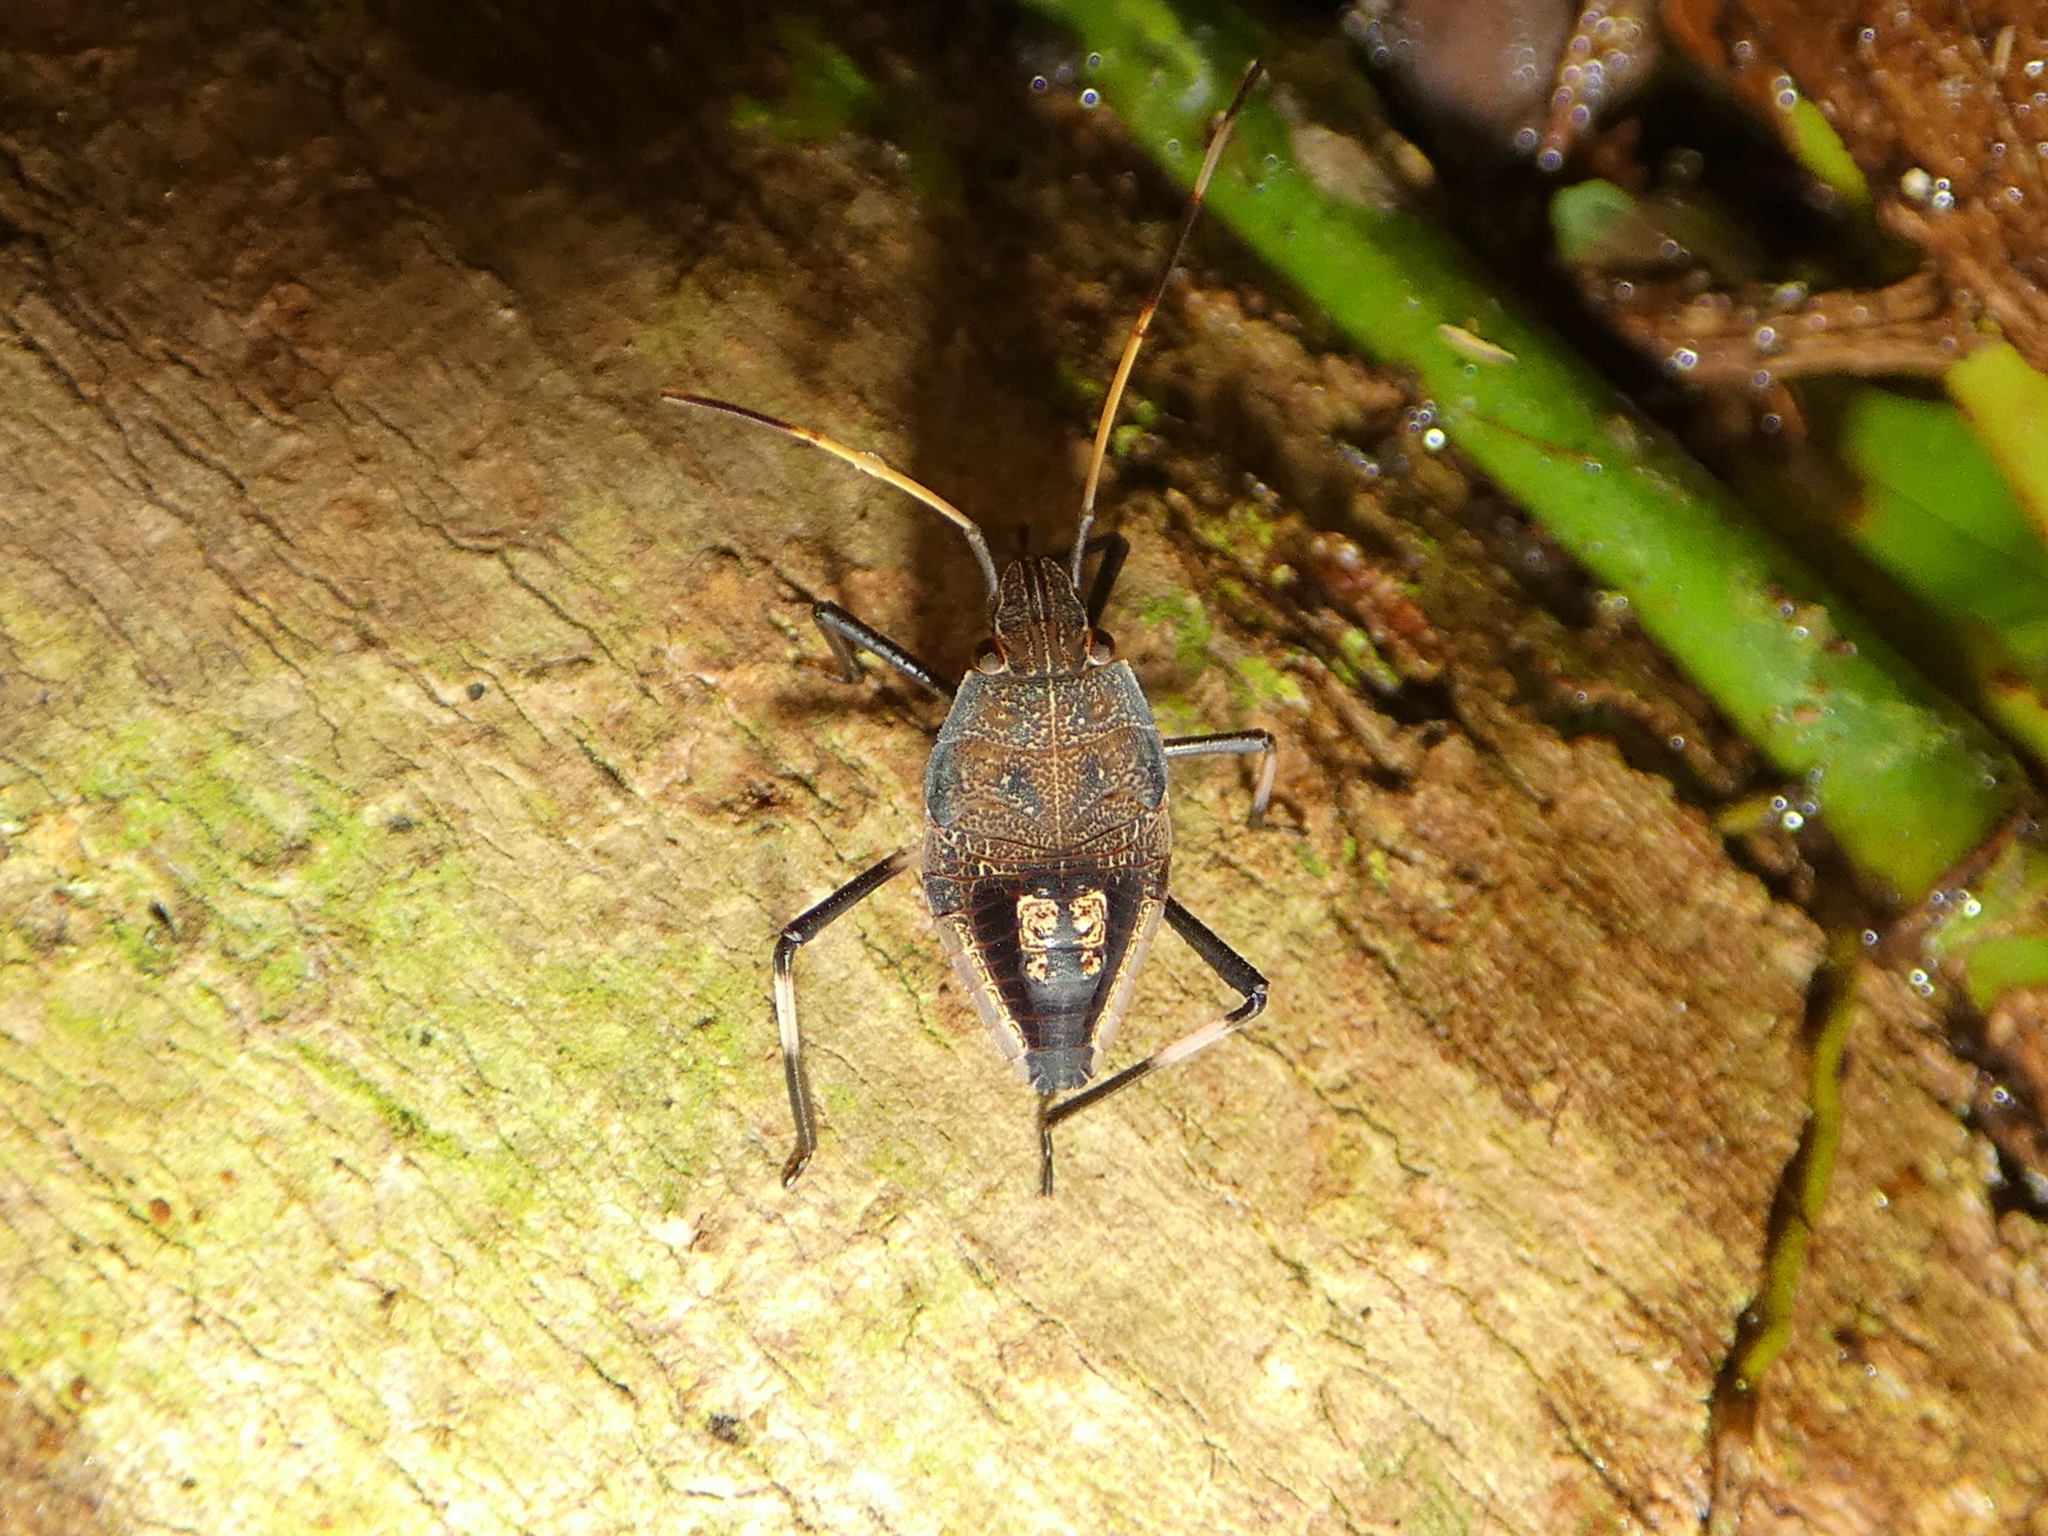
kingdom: Animalia
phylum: Arthropoda
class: Insecta
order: Hemiptera
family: Pentatomidae
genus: Poecilometis
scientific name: Poecilometis
